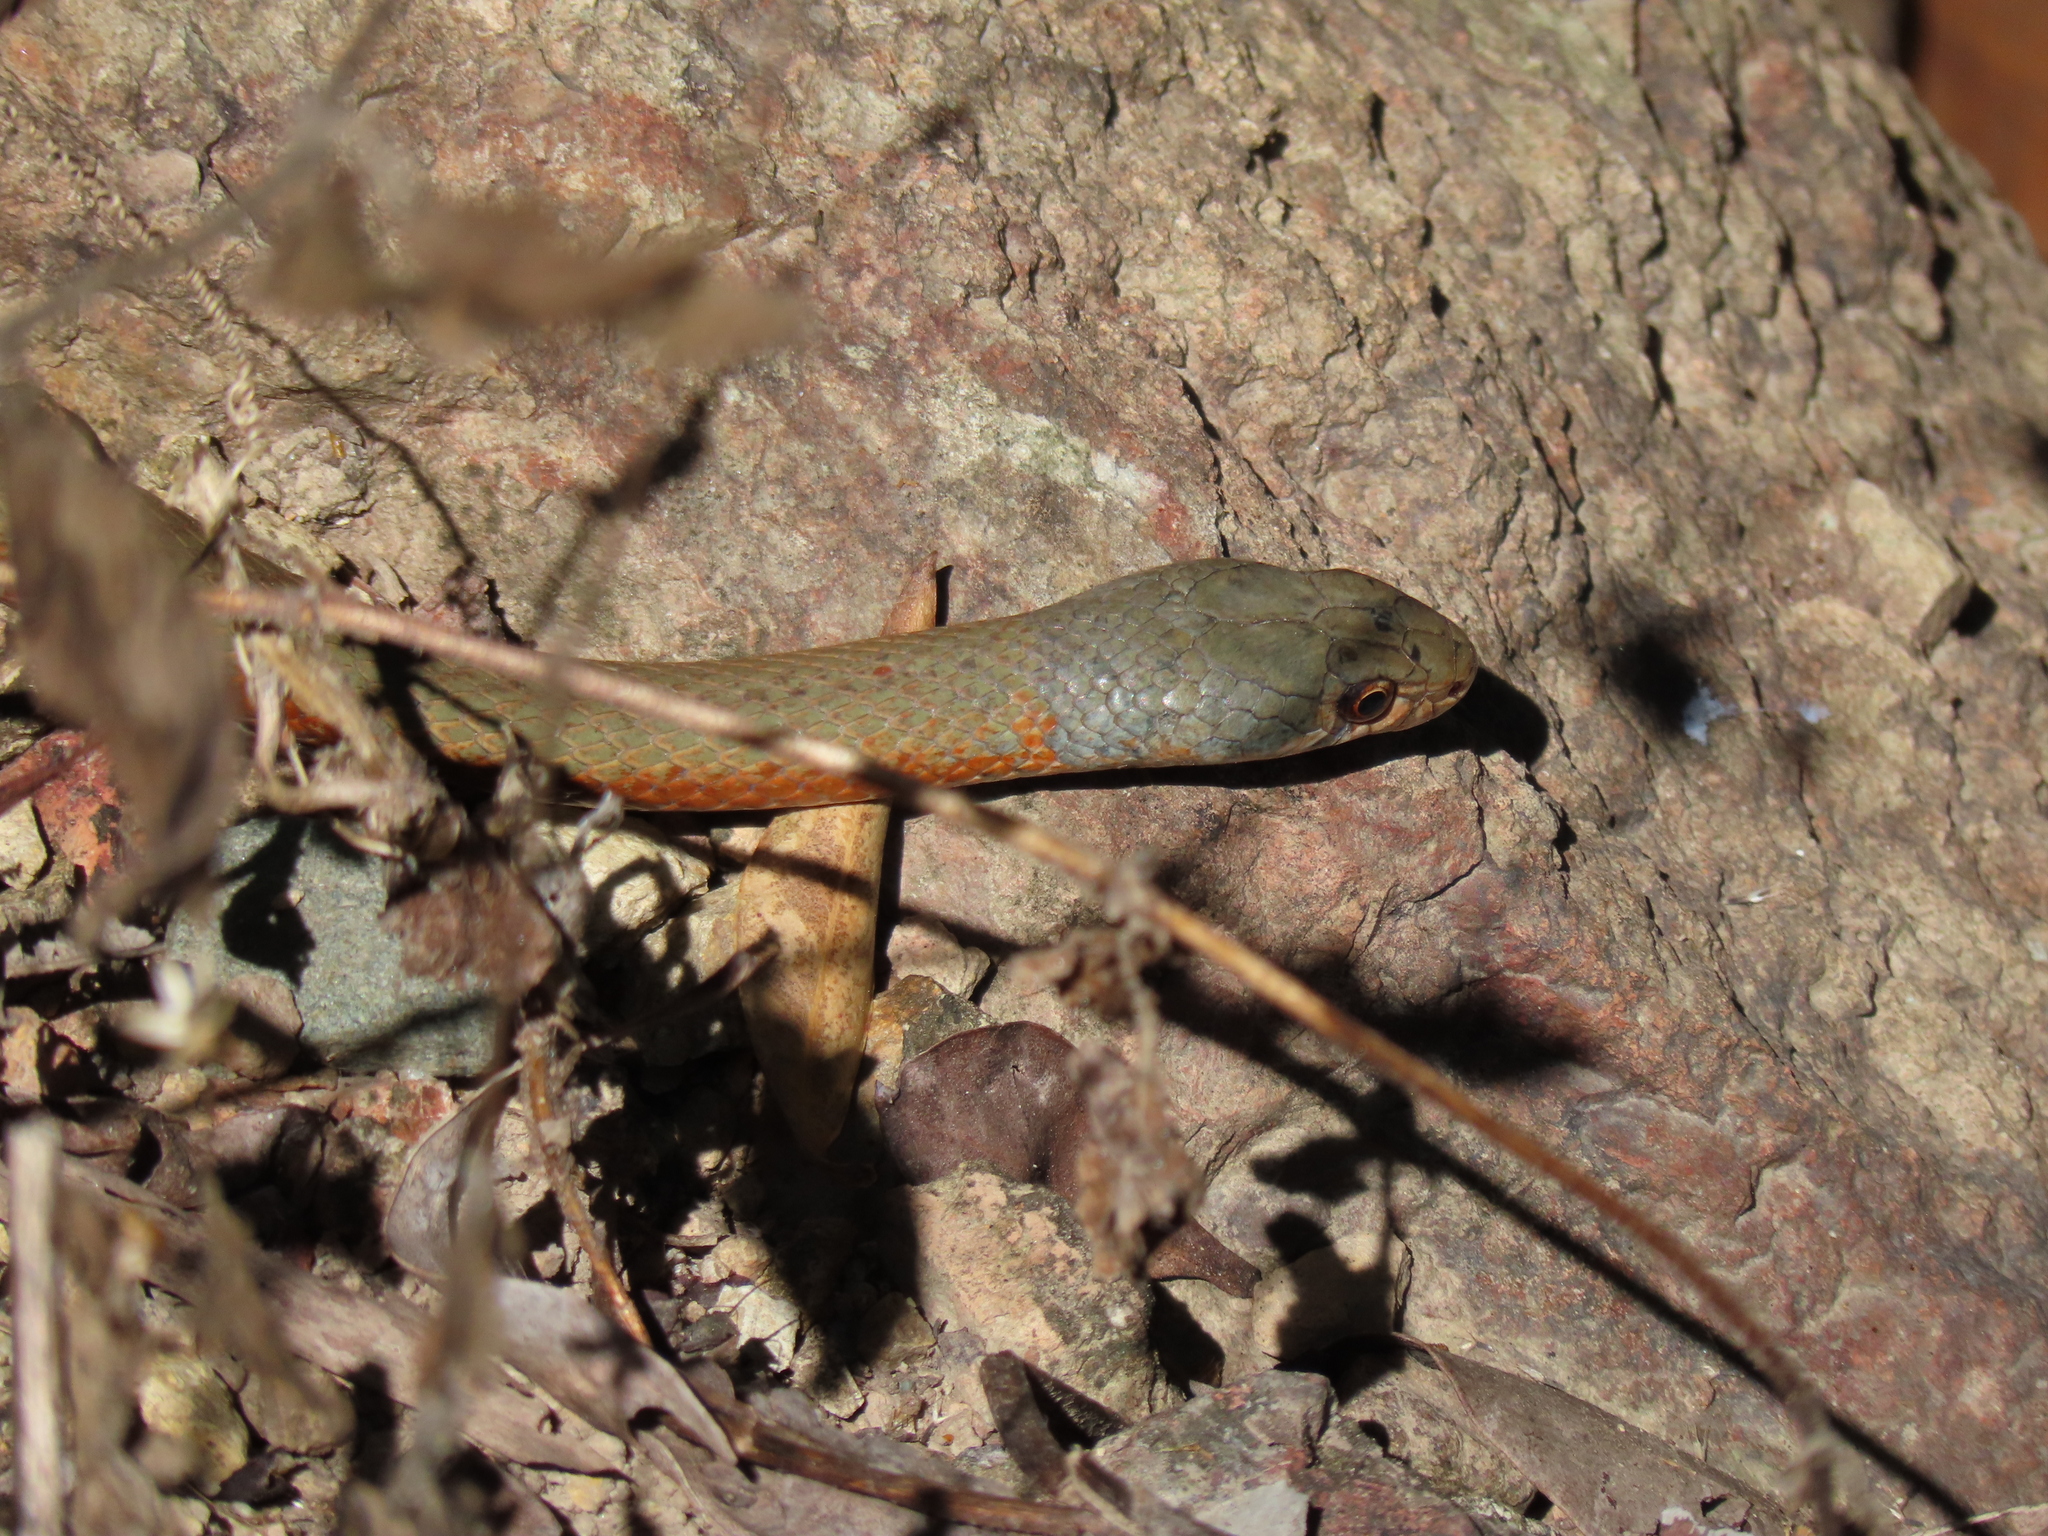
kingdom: Animalia
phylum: Chordata
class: Squamata
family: Elapidae
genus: Demansia
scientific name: Demansia torquata
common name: Collared whip snake
